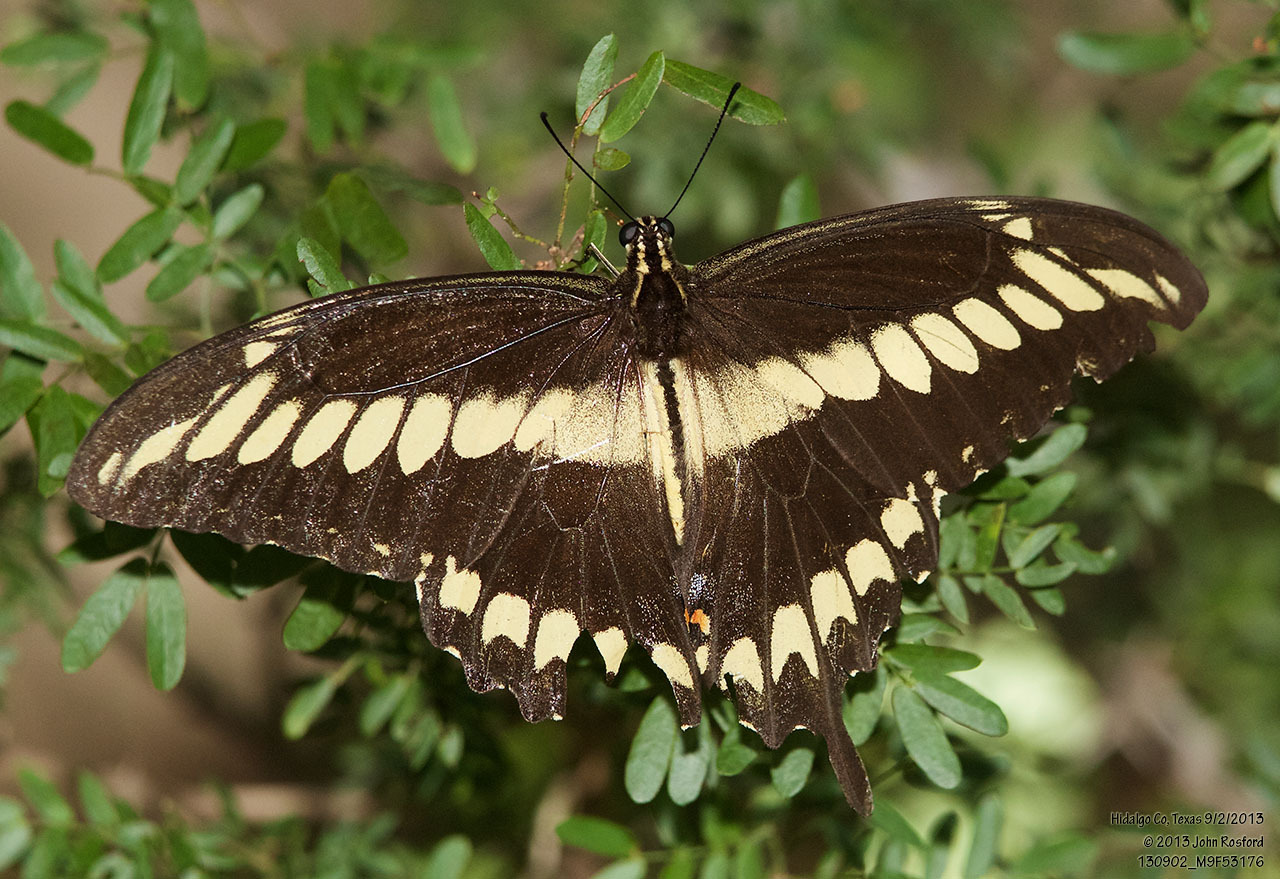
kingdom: Animalia
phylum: Arthropoda
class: Insecta
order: Lepidoptera
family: Papilionidae
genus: Papilio
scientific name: Papilio ornythion
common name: Ornythion swallowtail
